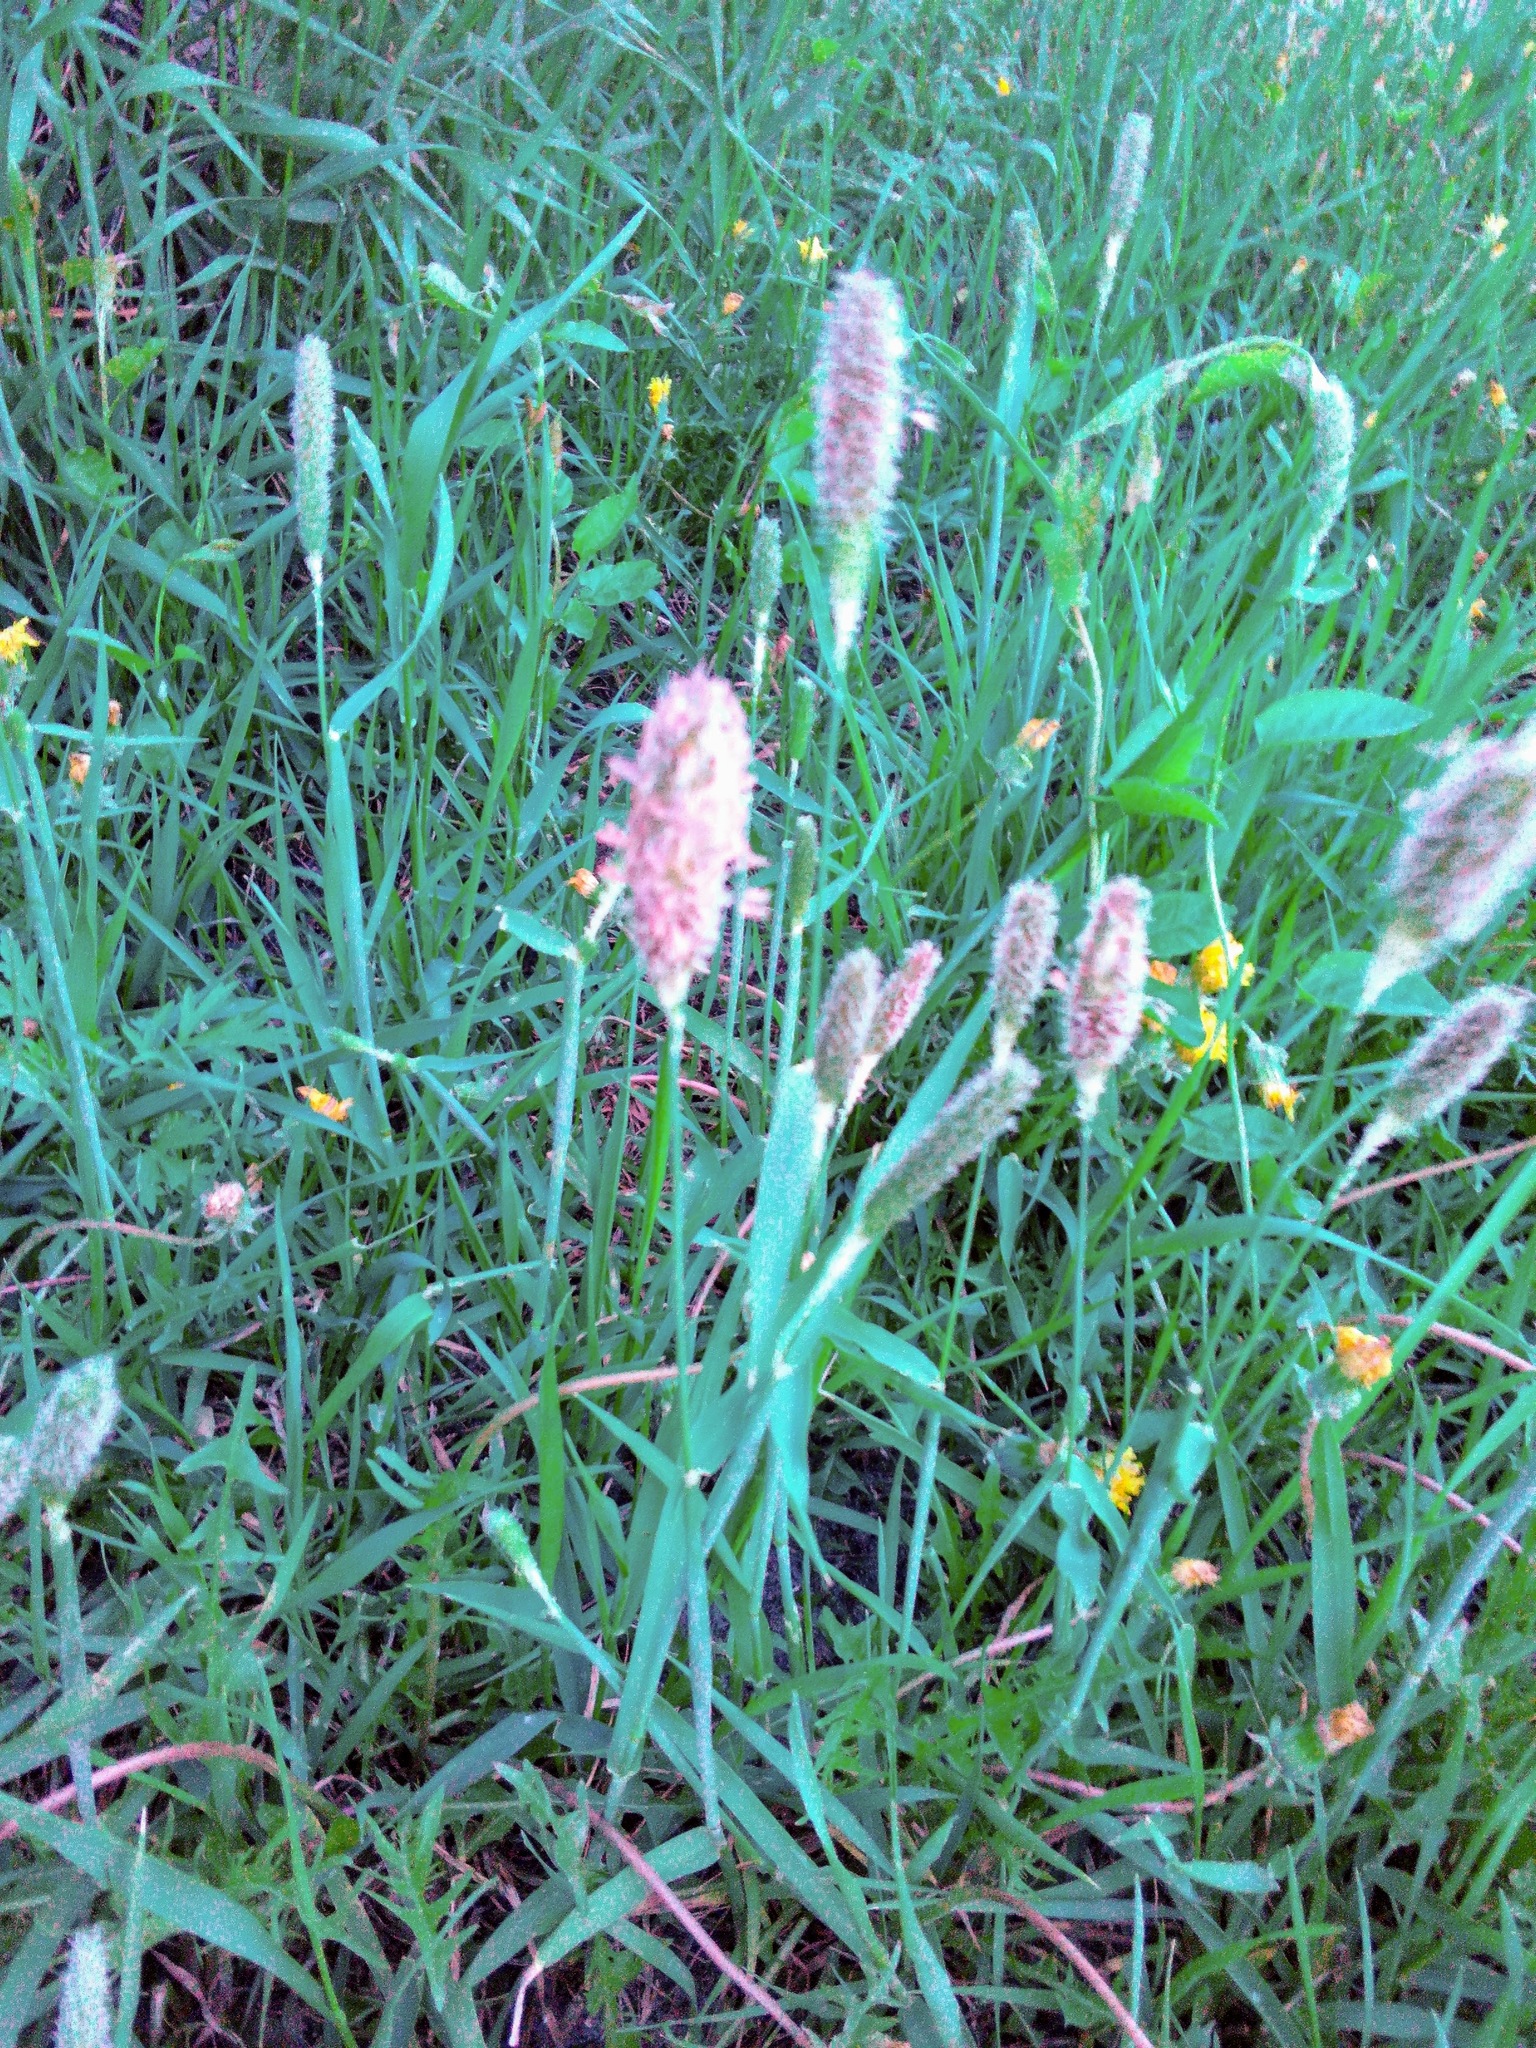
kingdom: Plantae
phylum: Tracheophyta
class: Liliopsida
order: Poales
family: Poaceae
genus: Alopecurus
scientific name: Alopecurus pratensis
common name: Meadow foxtail
